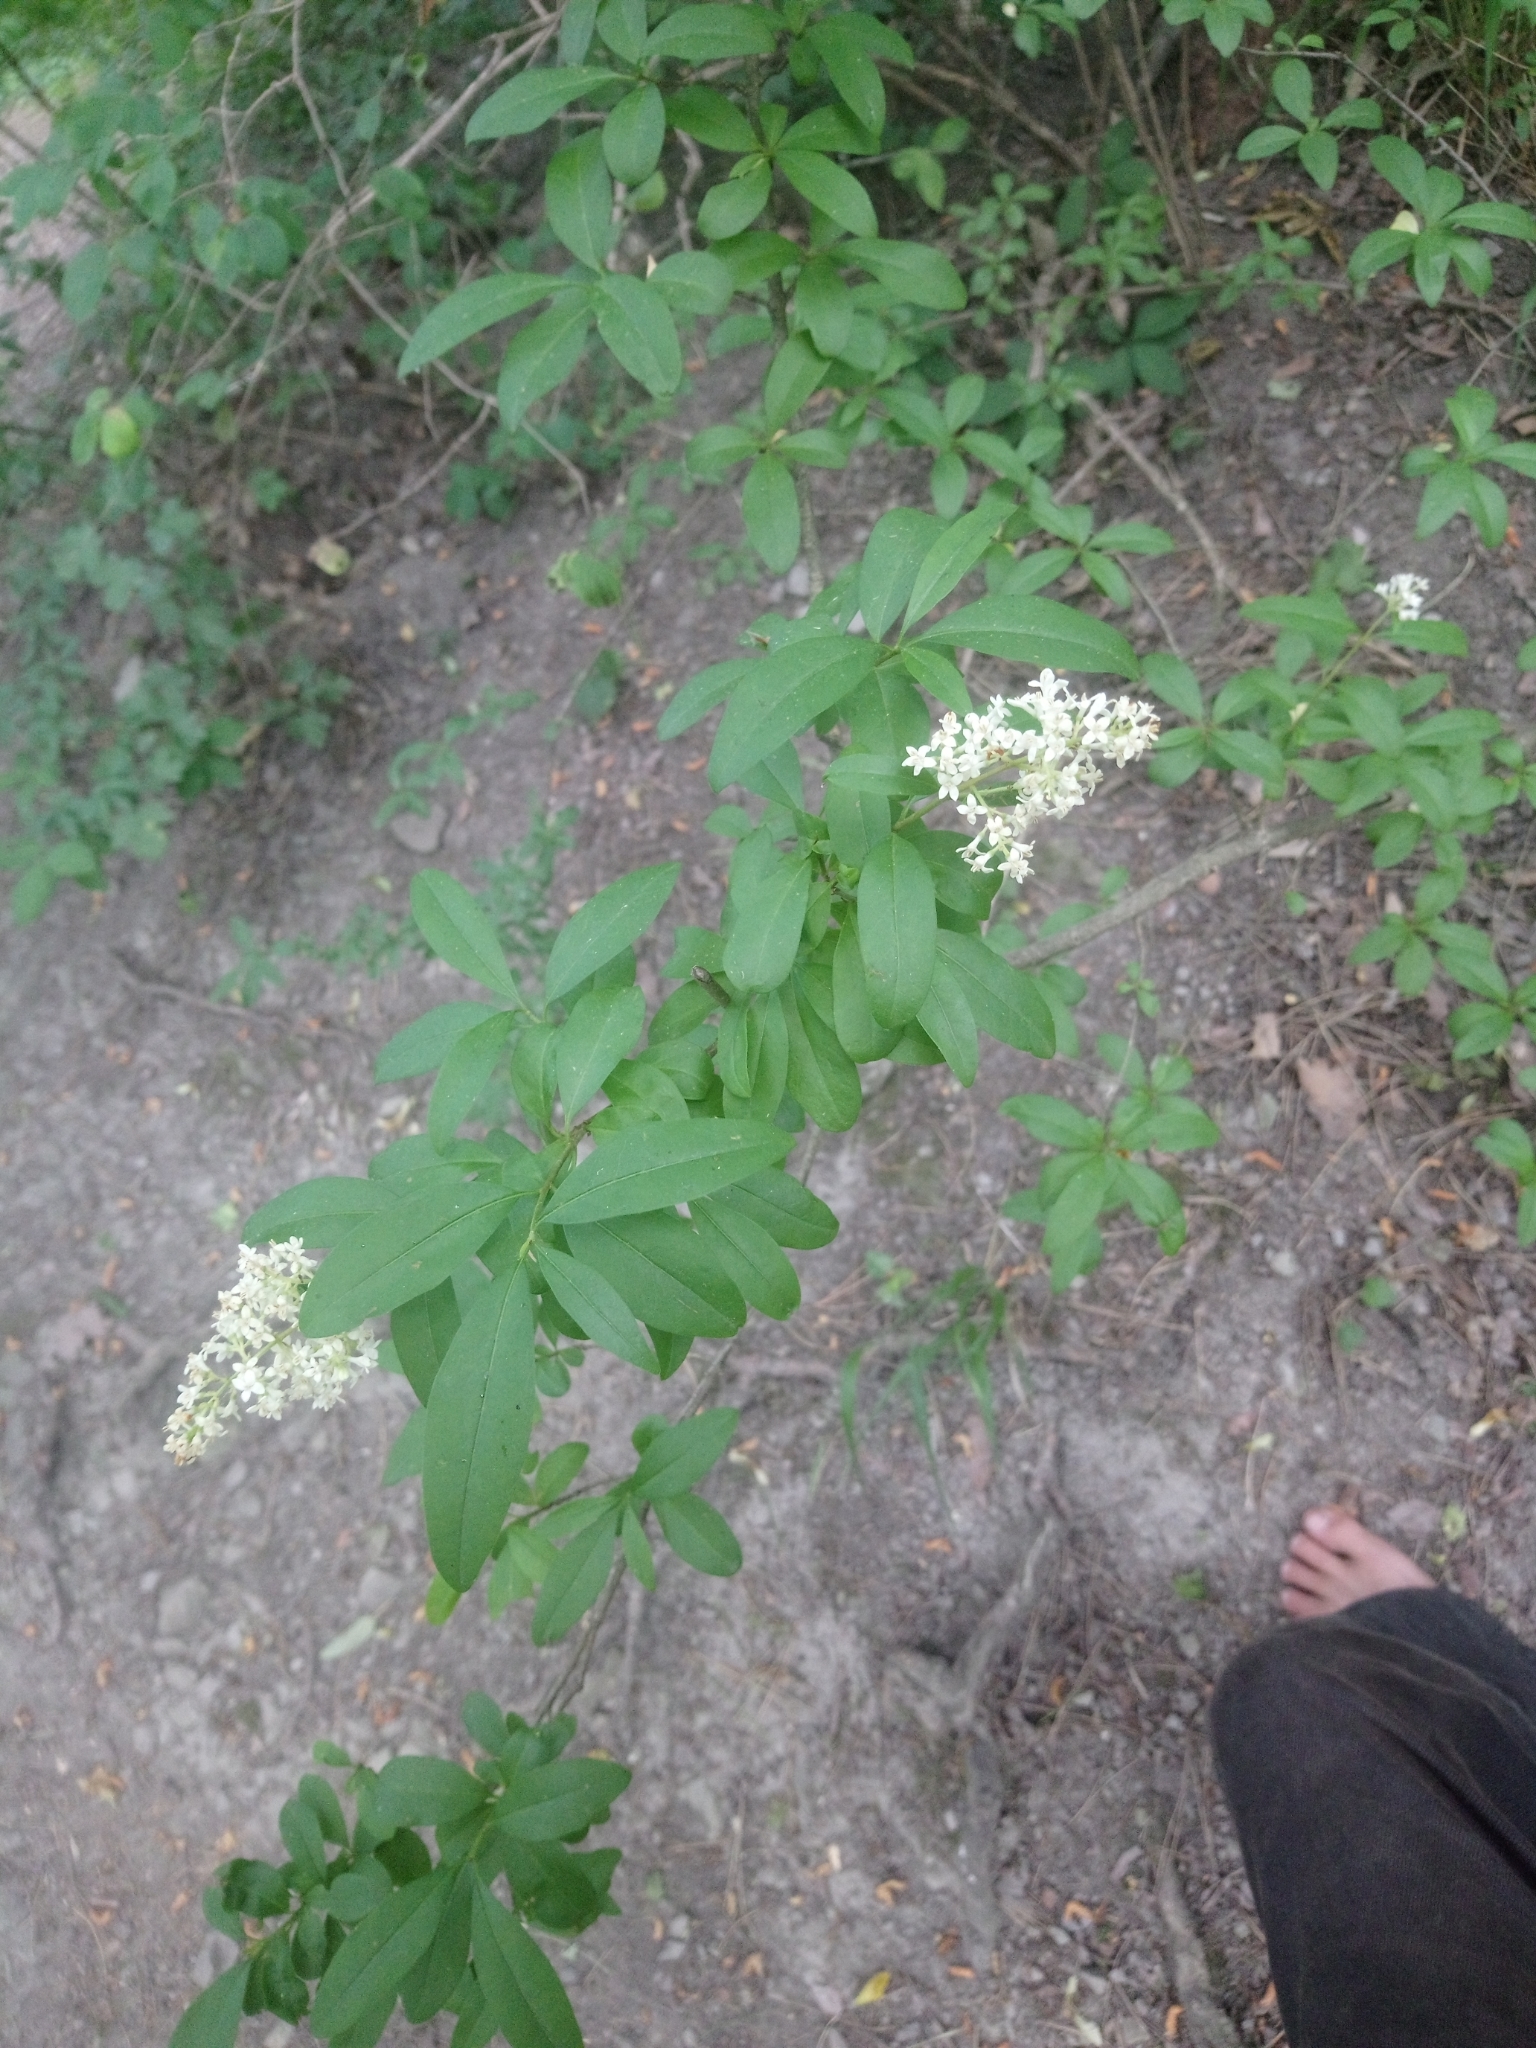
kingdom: Plantae
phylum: Tracheophyta
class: Magnoliopsida
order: Lamiales
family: Oleaceae
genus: Ligustrum
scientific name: Ligustrum vulgare
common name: Wild privet
